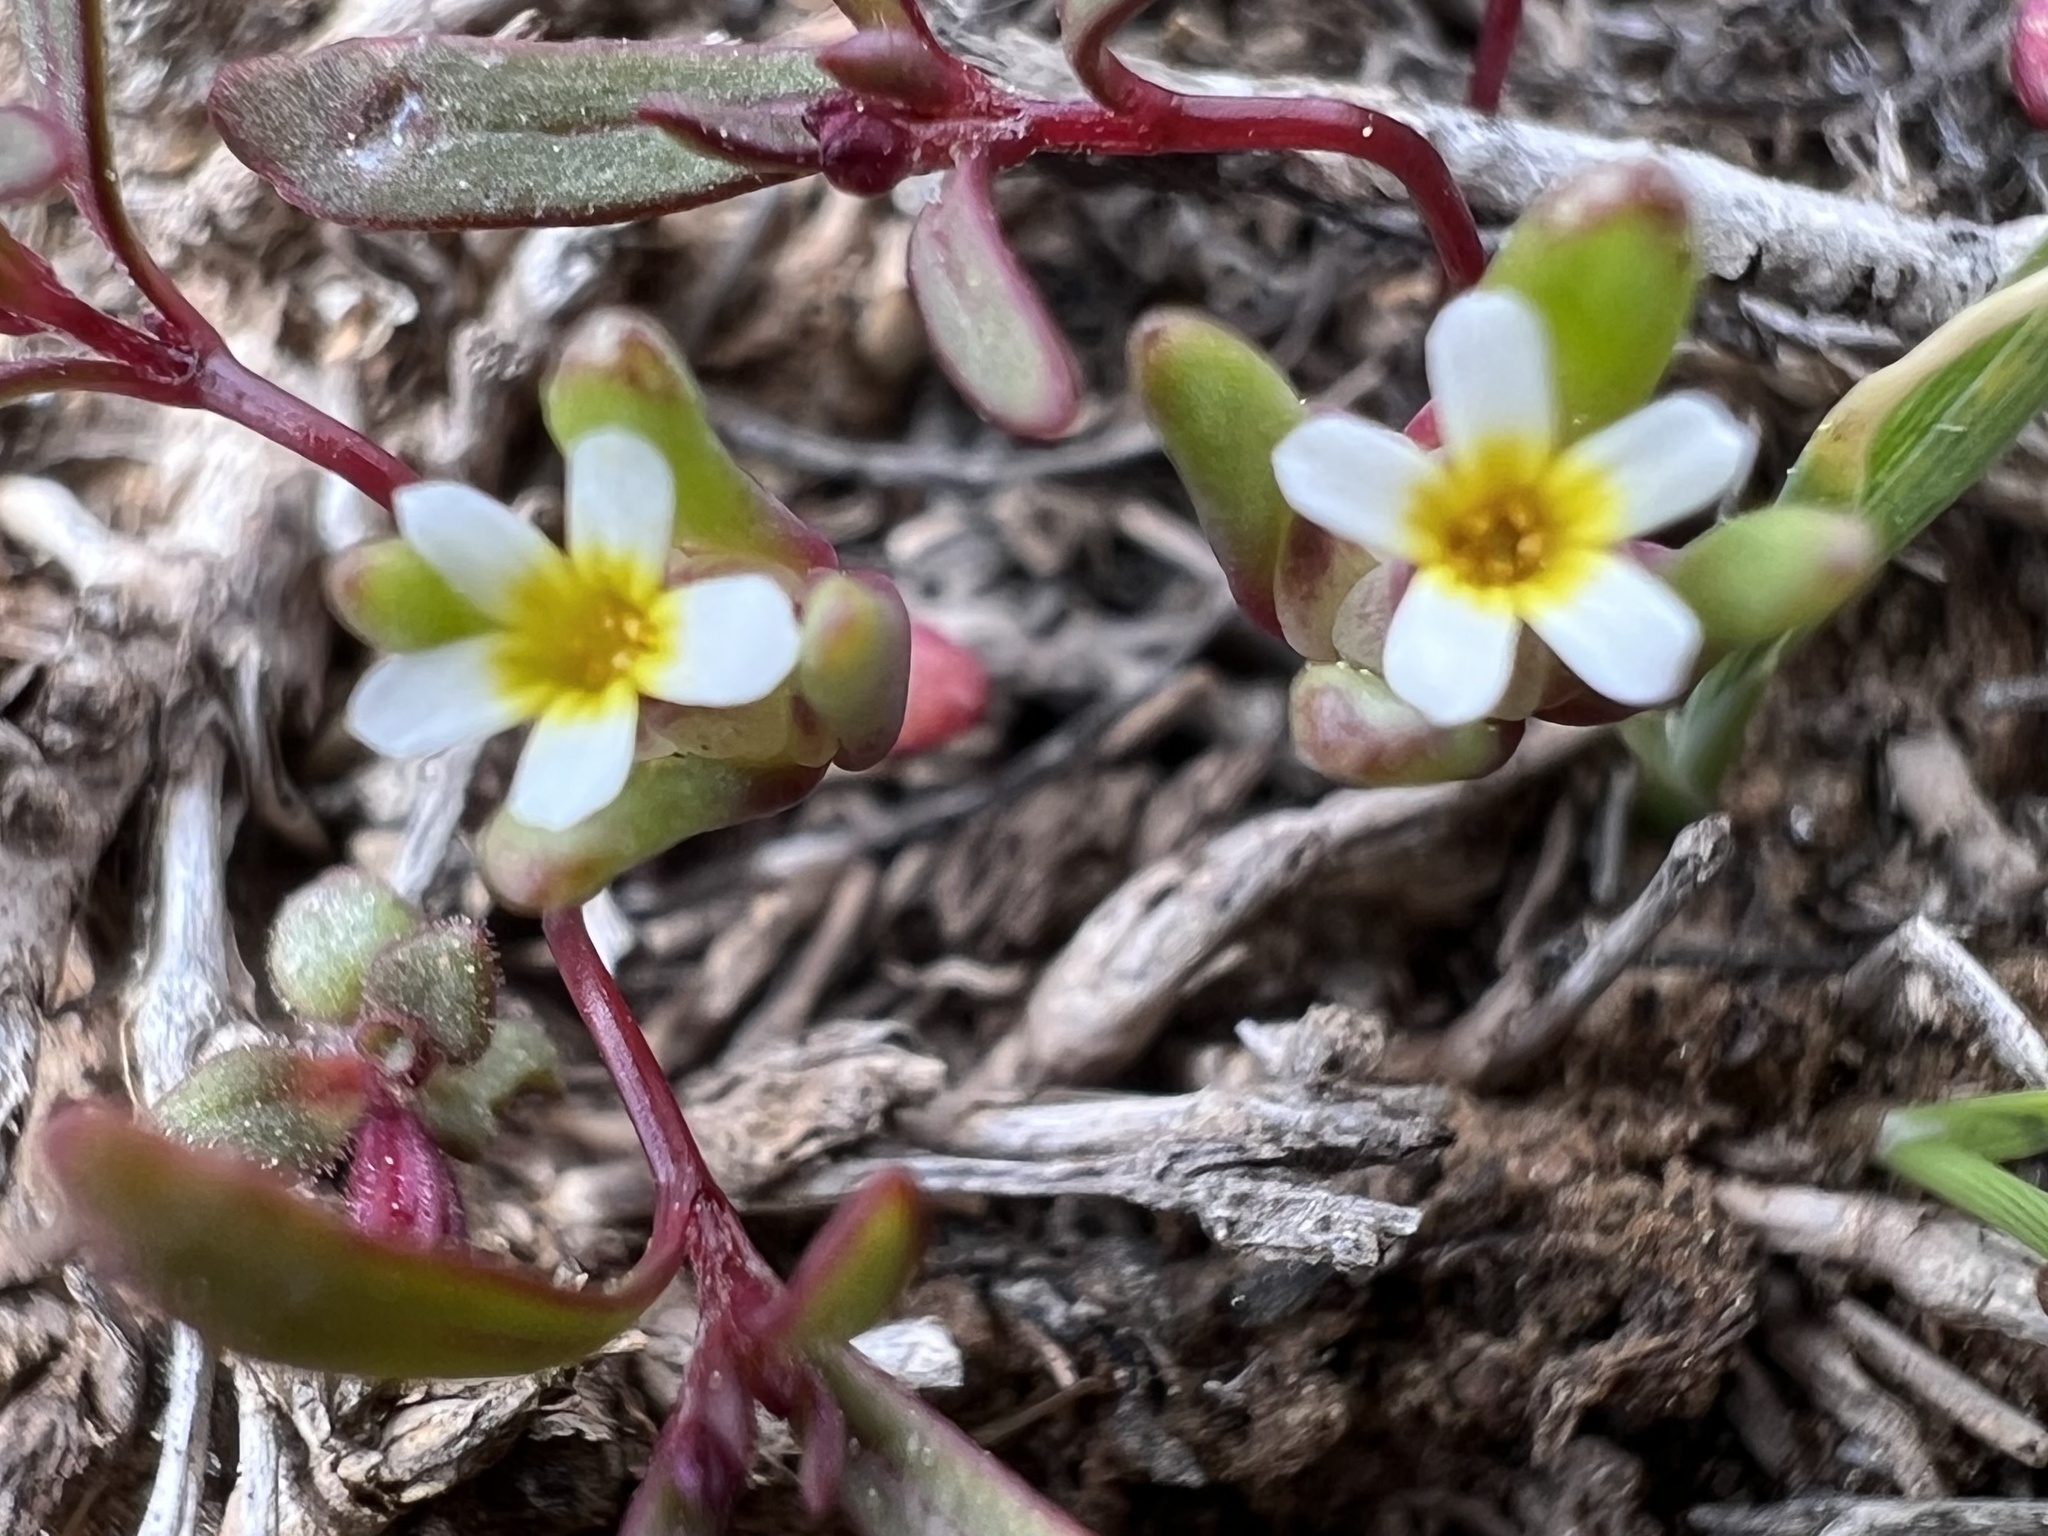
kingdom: Plantae
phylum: Tracheophyta
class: Magnoliopsida
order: Ericales
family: Polemoniaceae
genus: Gymnosteris
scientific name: Gymnosteris parvula
